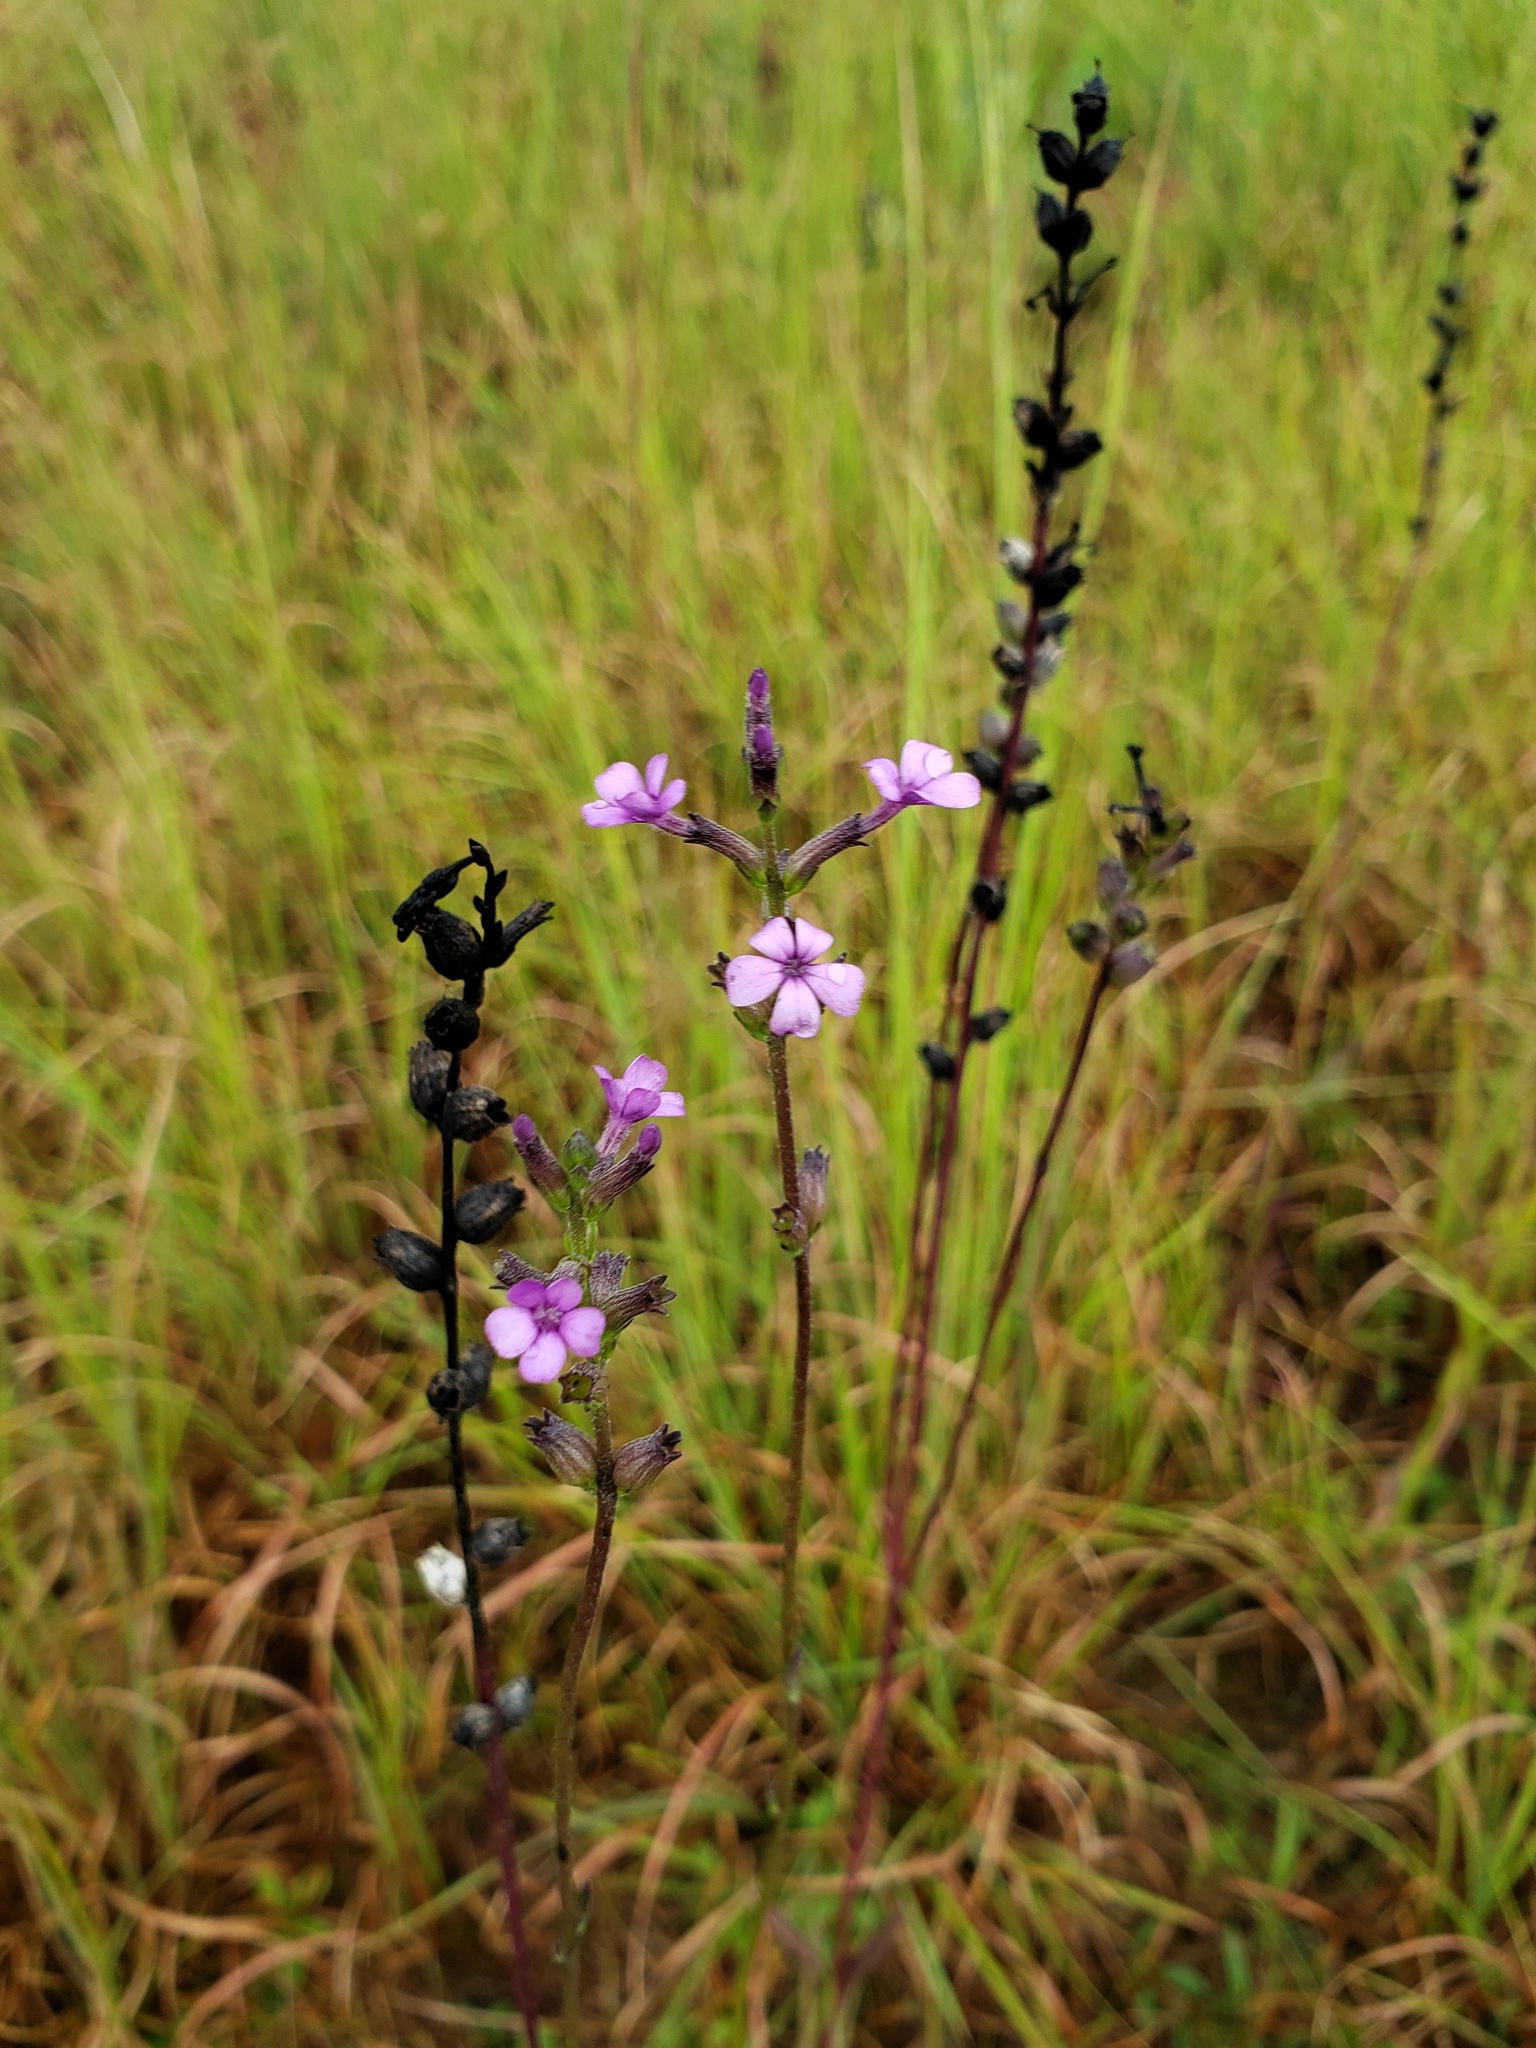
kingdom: Plantae
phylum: Tracheophyta
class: Magnoliopsida
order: Lamiales
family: Orobanchaceae
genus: Buchnera
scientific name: Buchnera floridana
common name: Florida bluehearts
